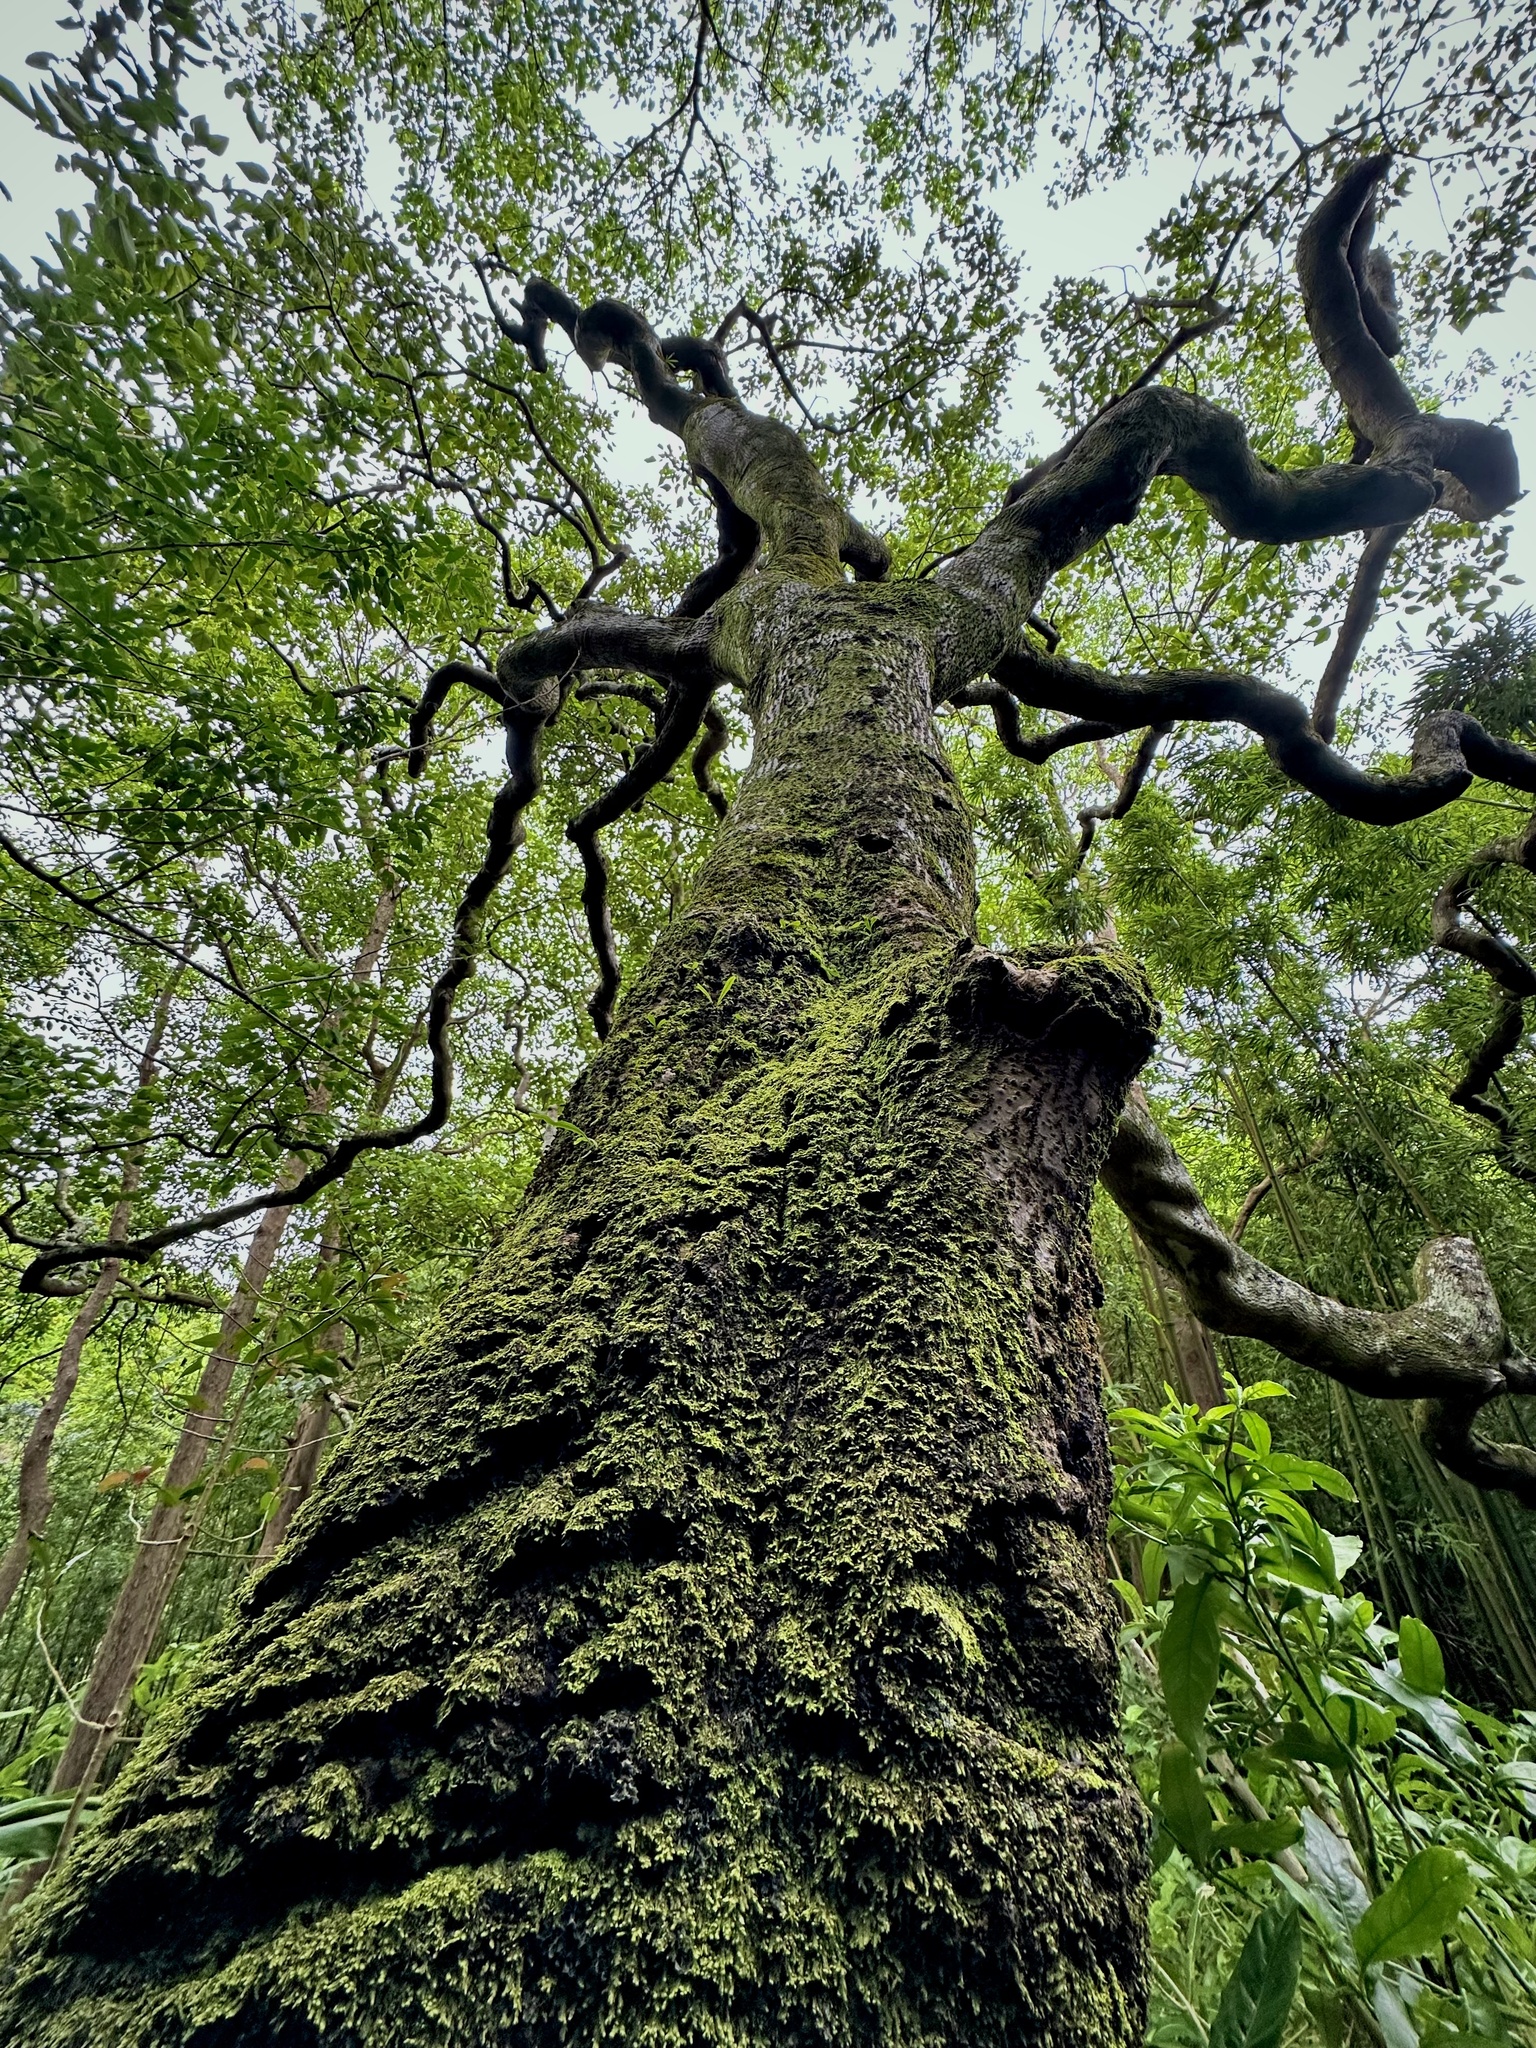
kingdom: Plantae
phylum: Tracheophyta
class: Magnoliopsida
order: Malpighiales
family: Euphorbiaceae
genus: Aleurites
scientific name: Aleurites moluccanus
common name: Candlenut tree
